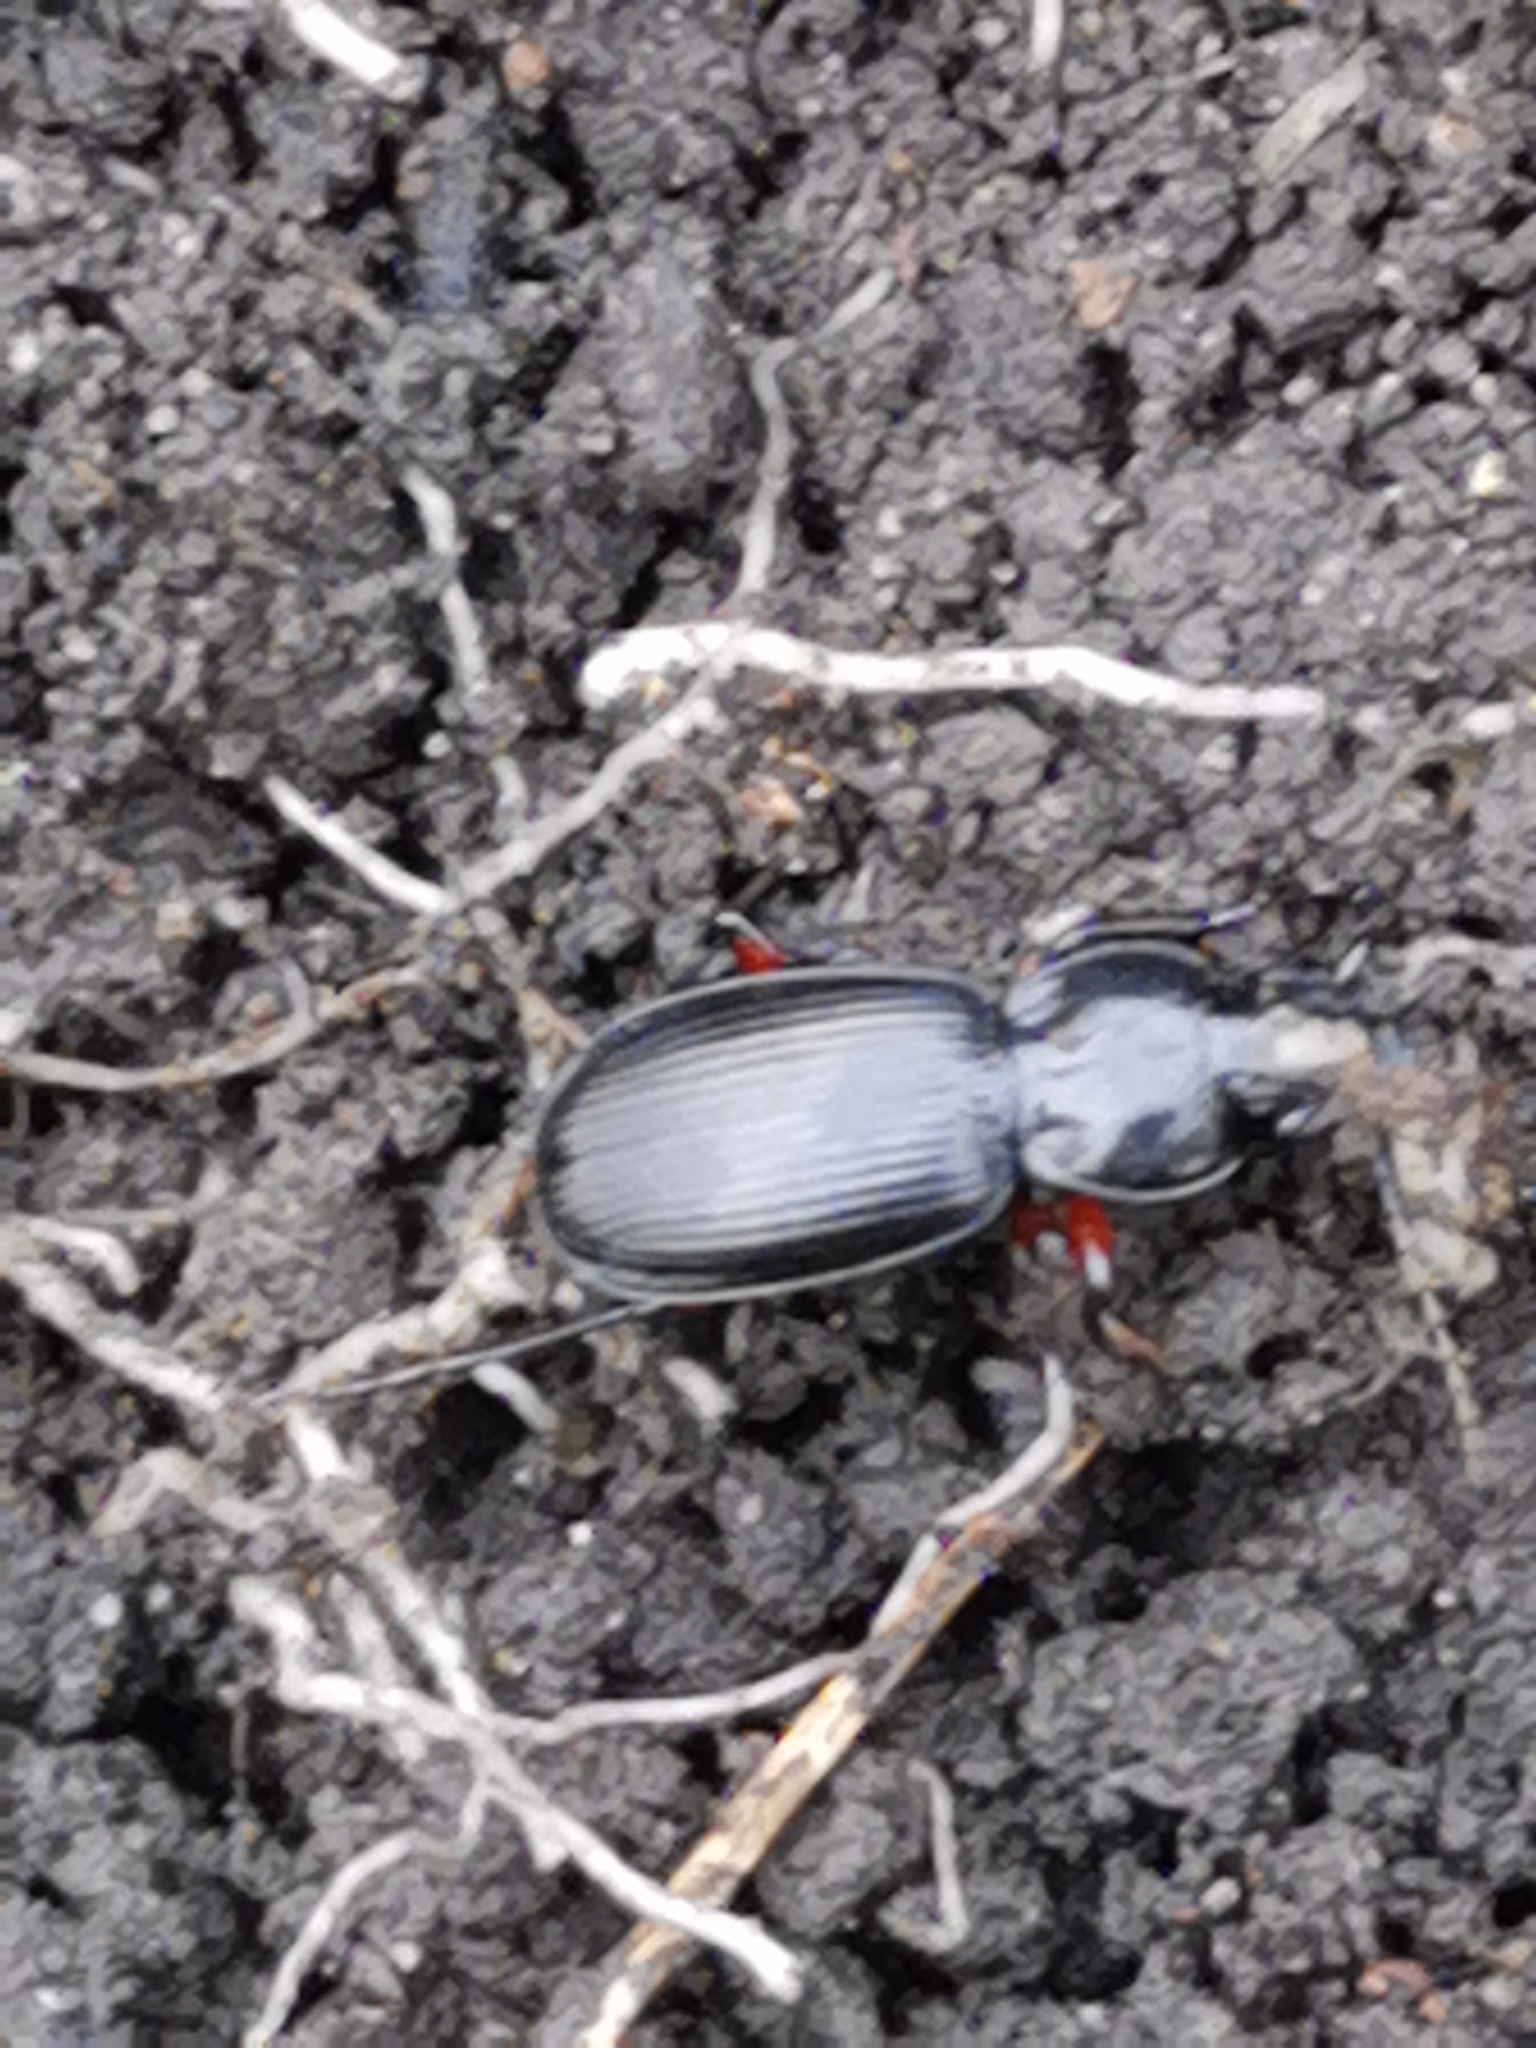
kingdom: Animalia
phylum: Arthropoda
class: Insecta
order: Coleoptera
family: Carabidae
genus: Pterostichus
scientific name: Pterostichus madidus
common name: Black clock
